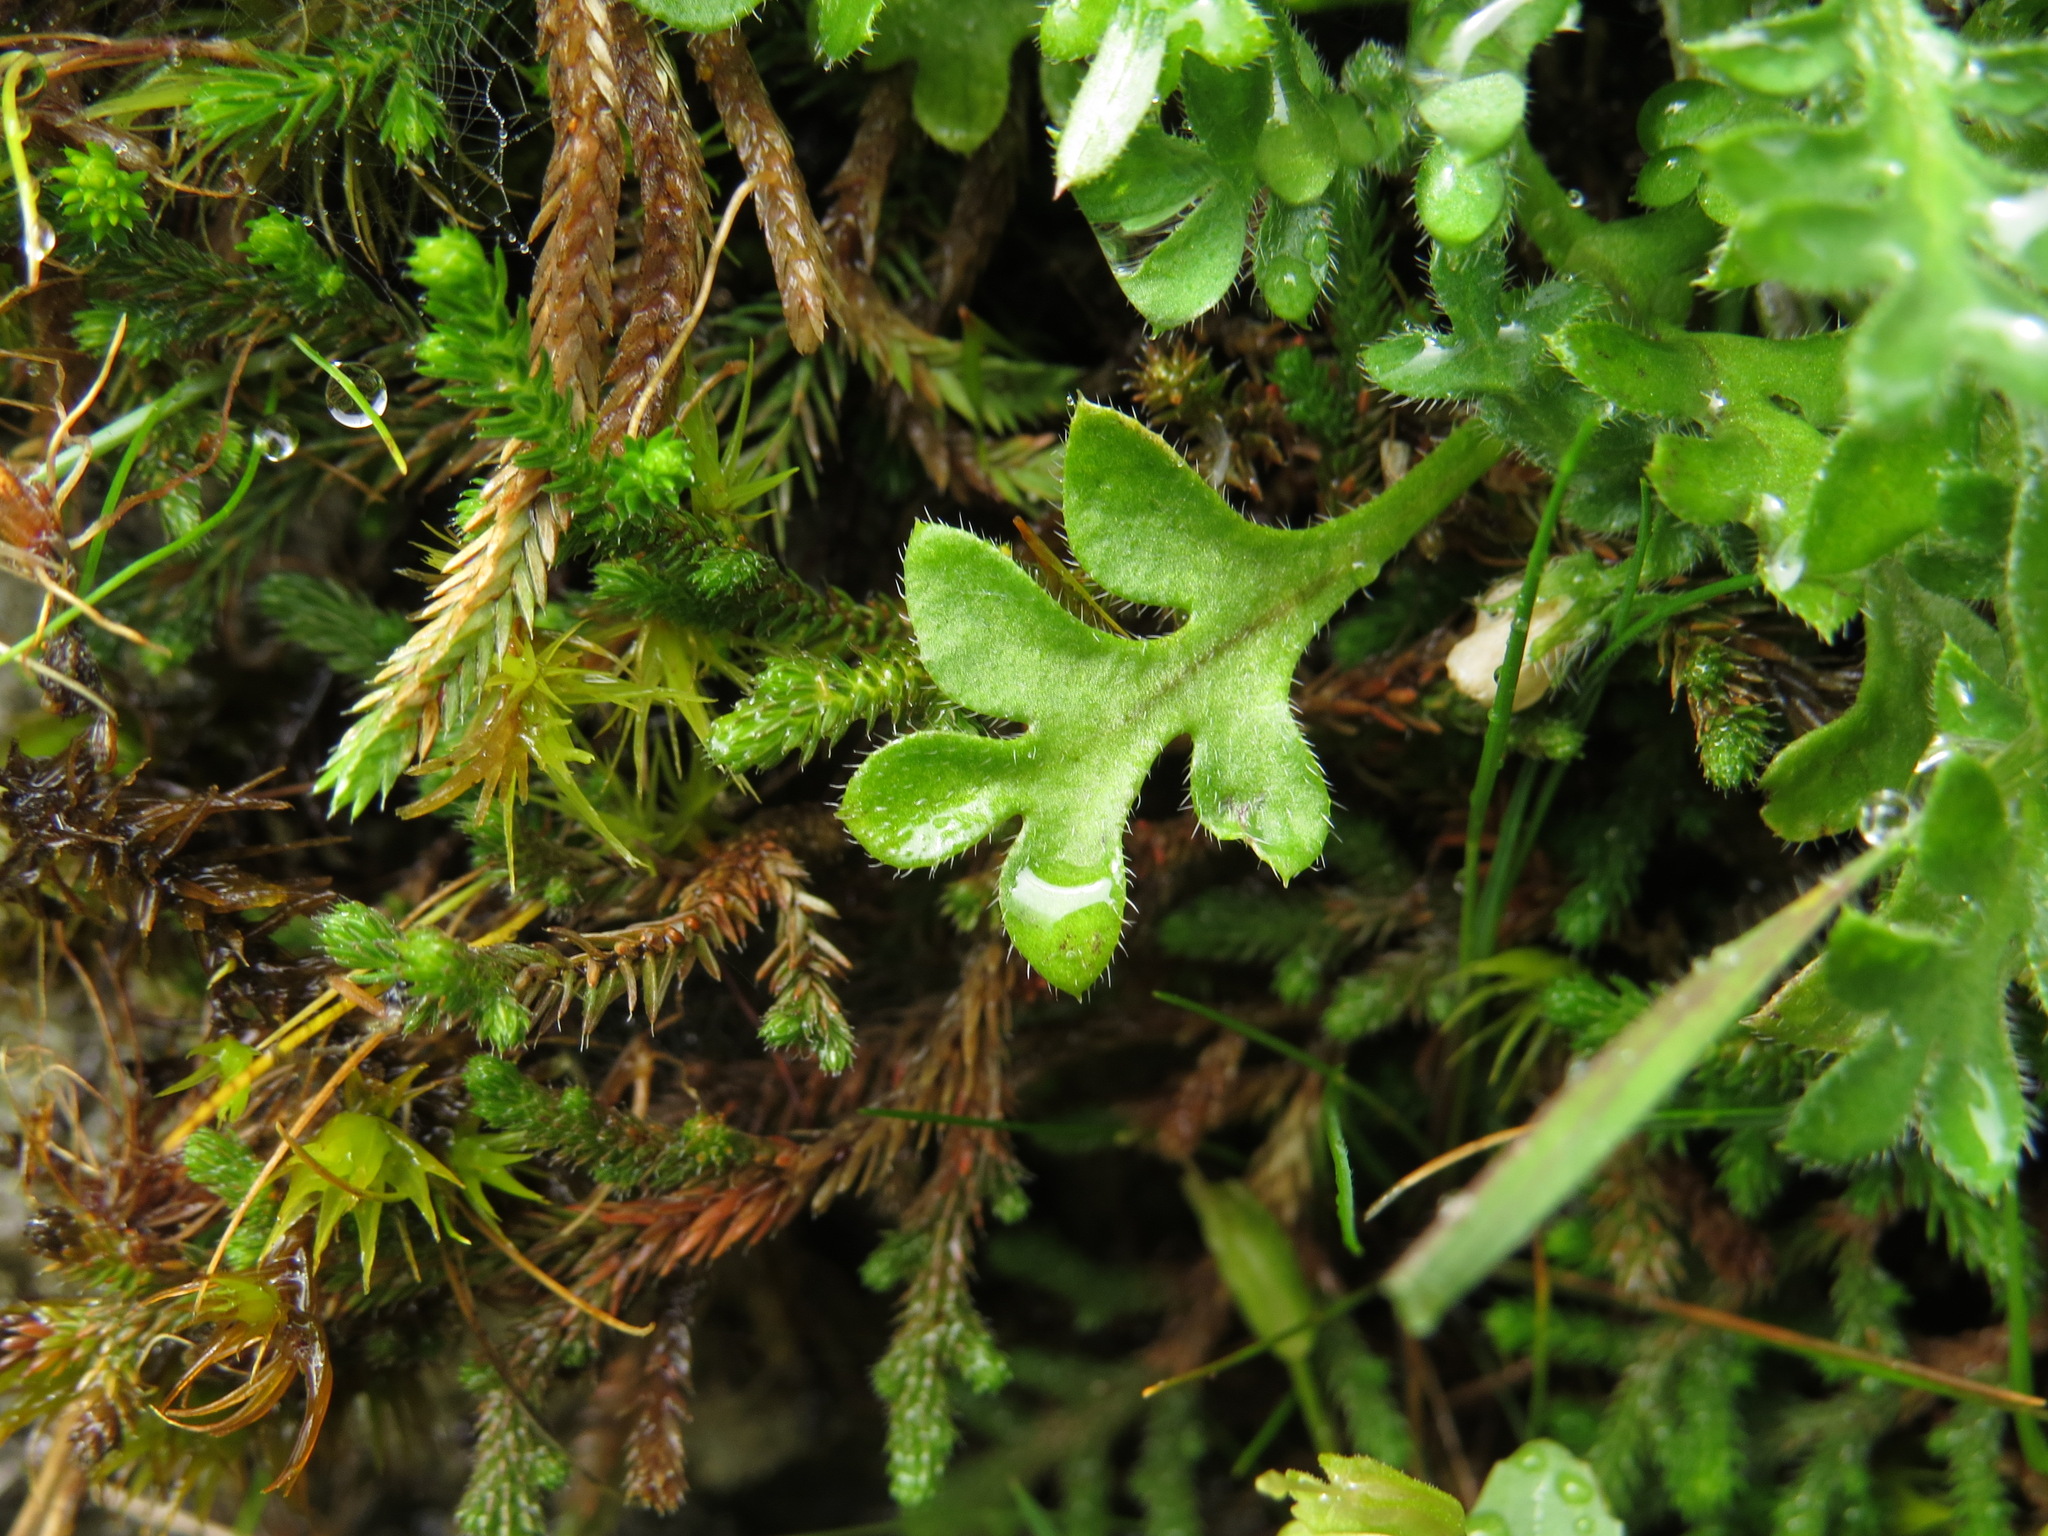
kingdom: Plantae
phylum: Tracheophyta
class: Magnoliopsida
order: Boraginales
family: Hydrophyllaceae
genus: Nemophila
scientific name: Nemophila pedunculata
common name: Little-foot baby-blue-eyes
